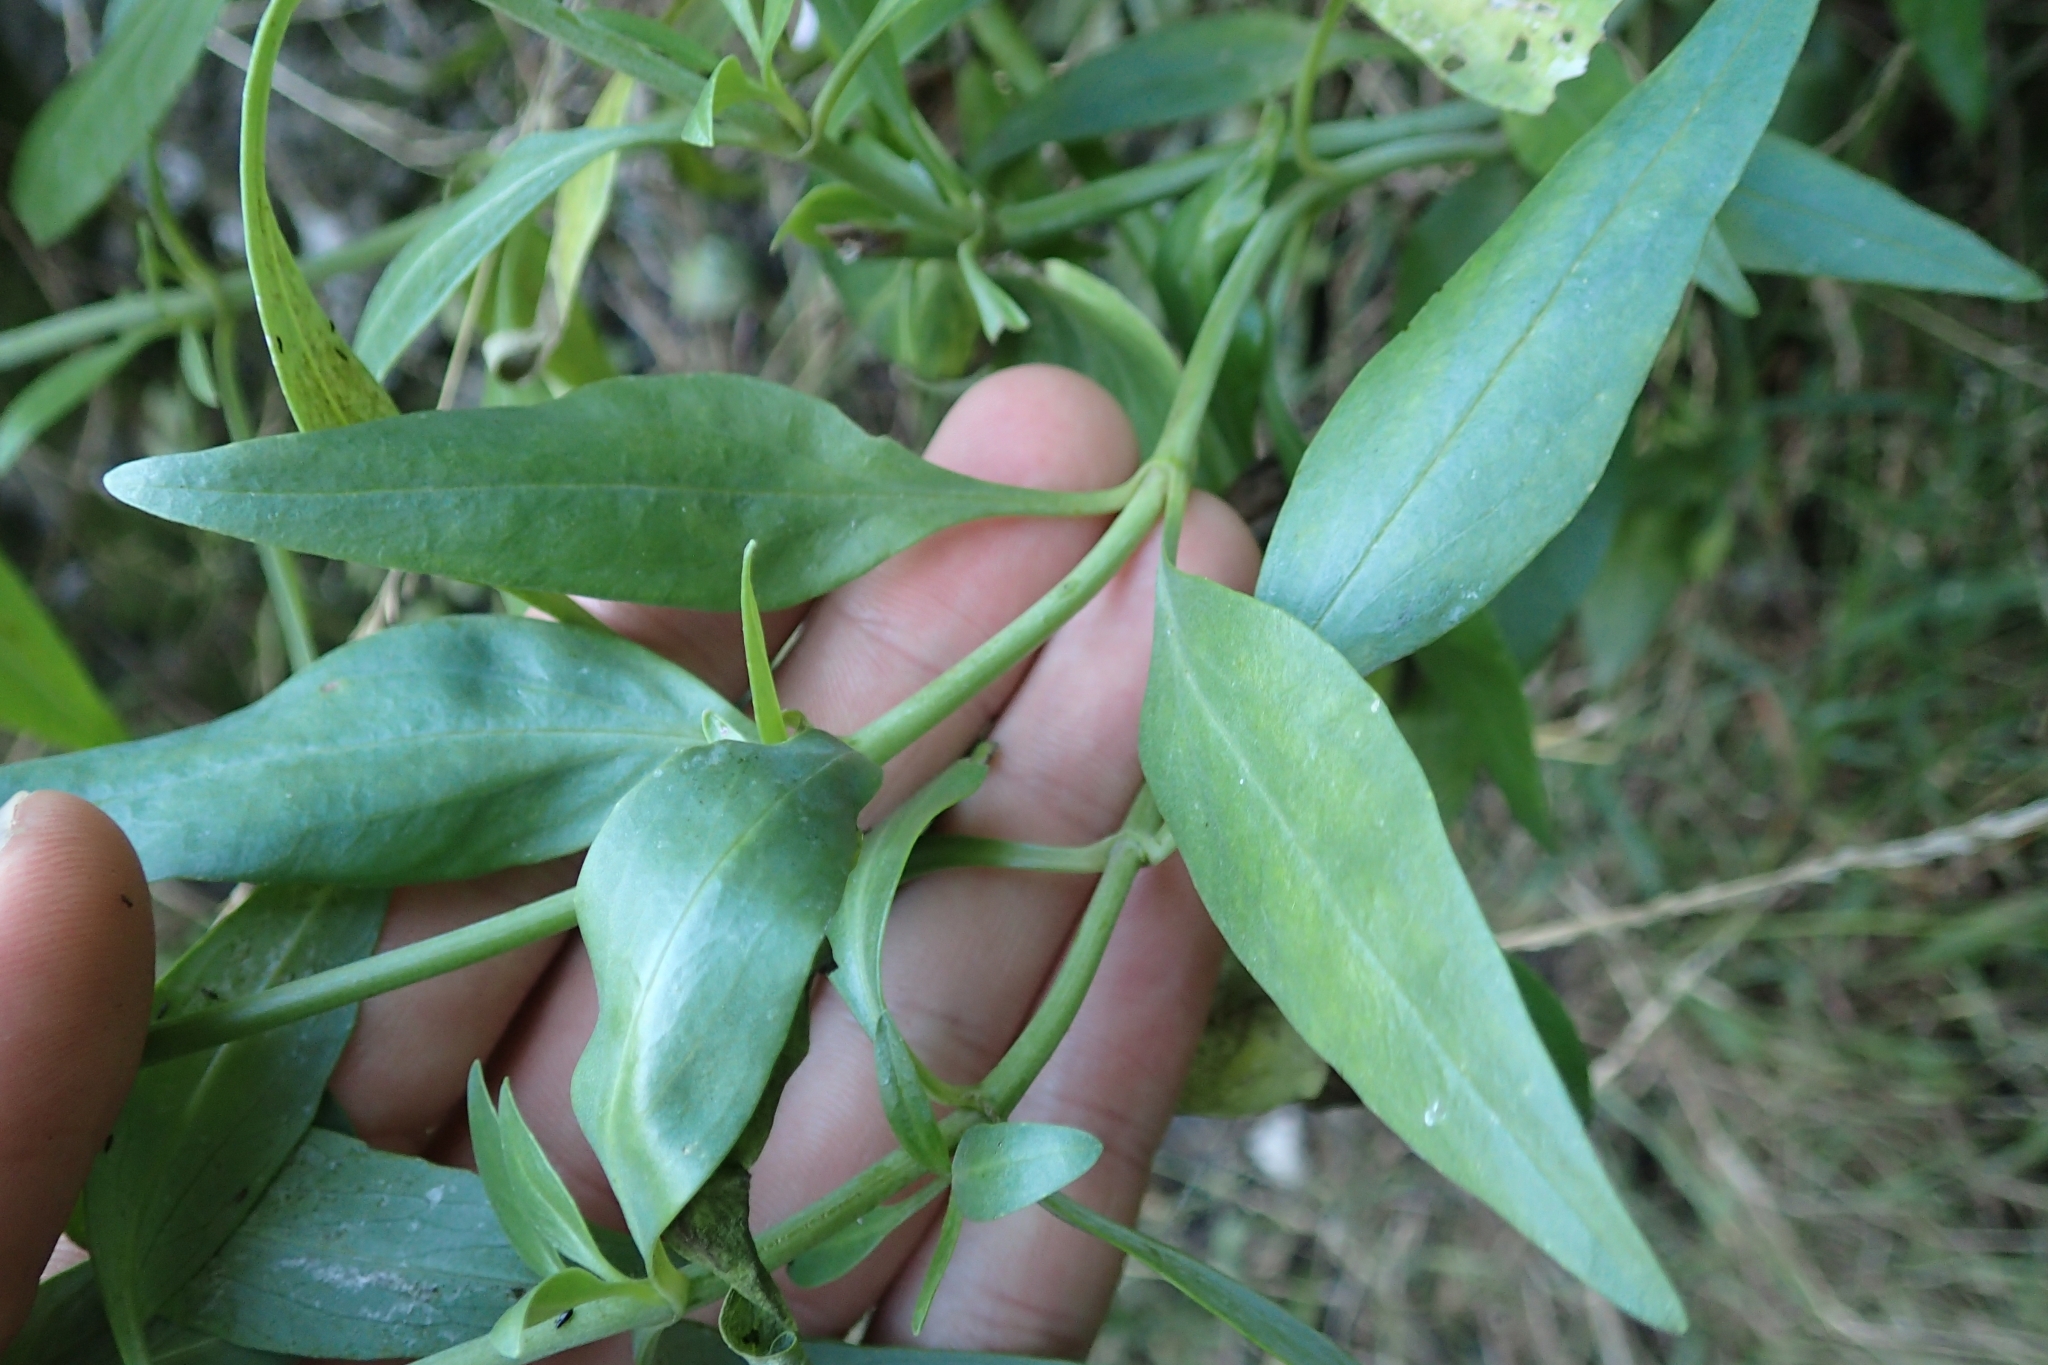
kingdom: Plantae
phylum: Tracheophyta
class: Magnoliopsida
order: Dipsacales
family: Caprifoliaceae
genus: Centranthus
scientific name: Centranthus ruber
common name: Red valerian
